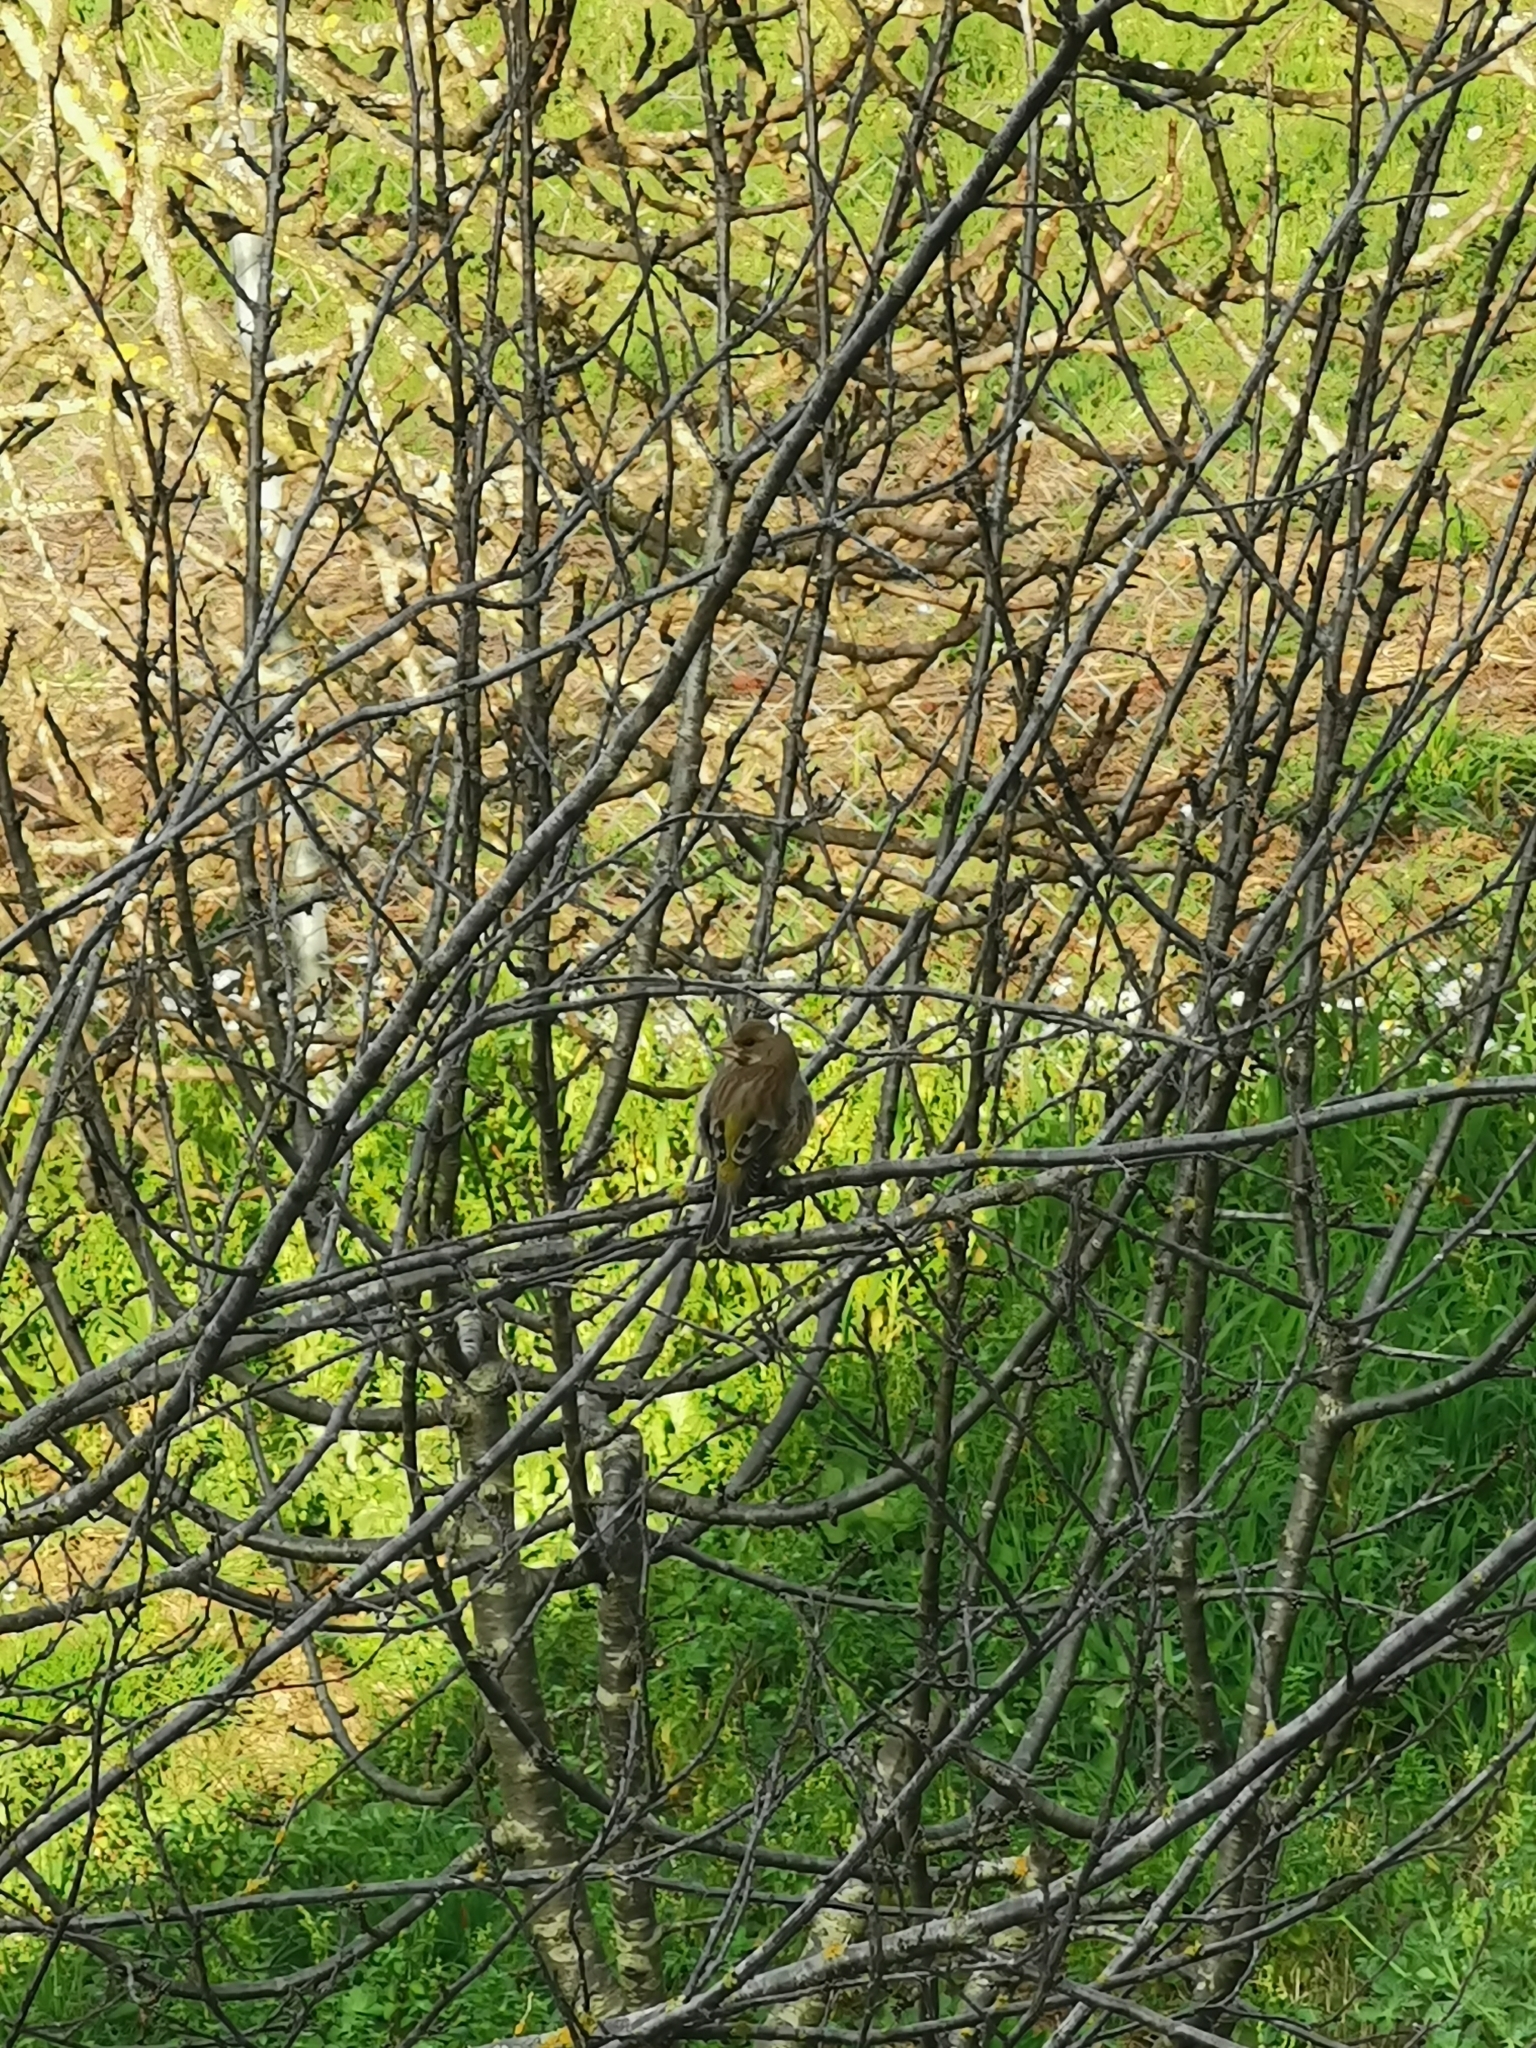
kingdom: Plantae
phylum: Tracheophyta
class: Liliopsida
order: Poales
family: Poaceae
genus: Chloris
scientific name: Chloris chloris
